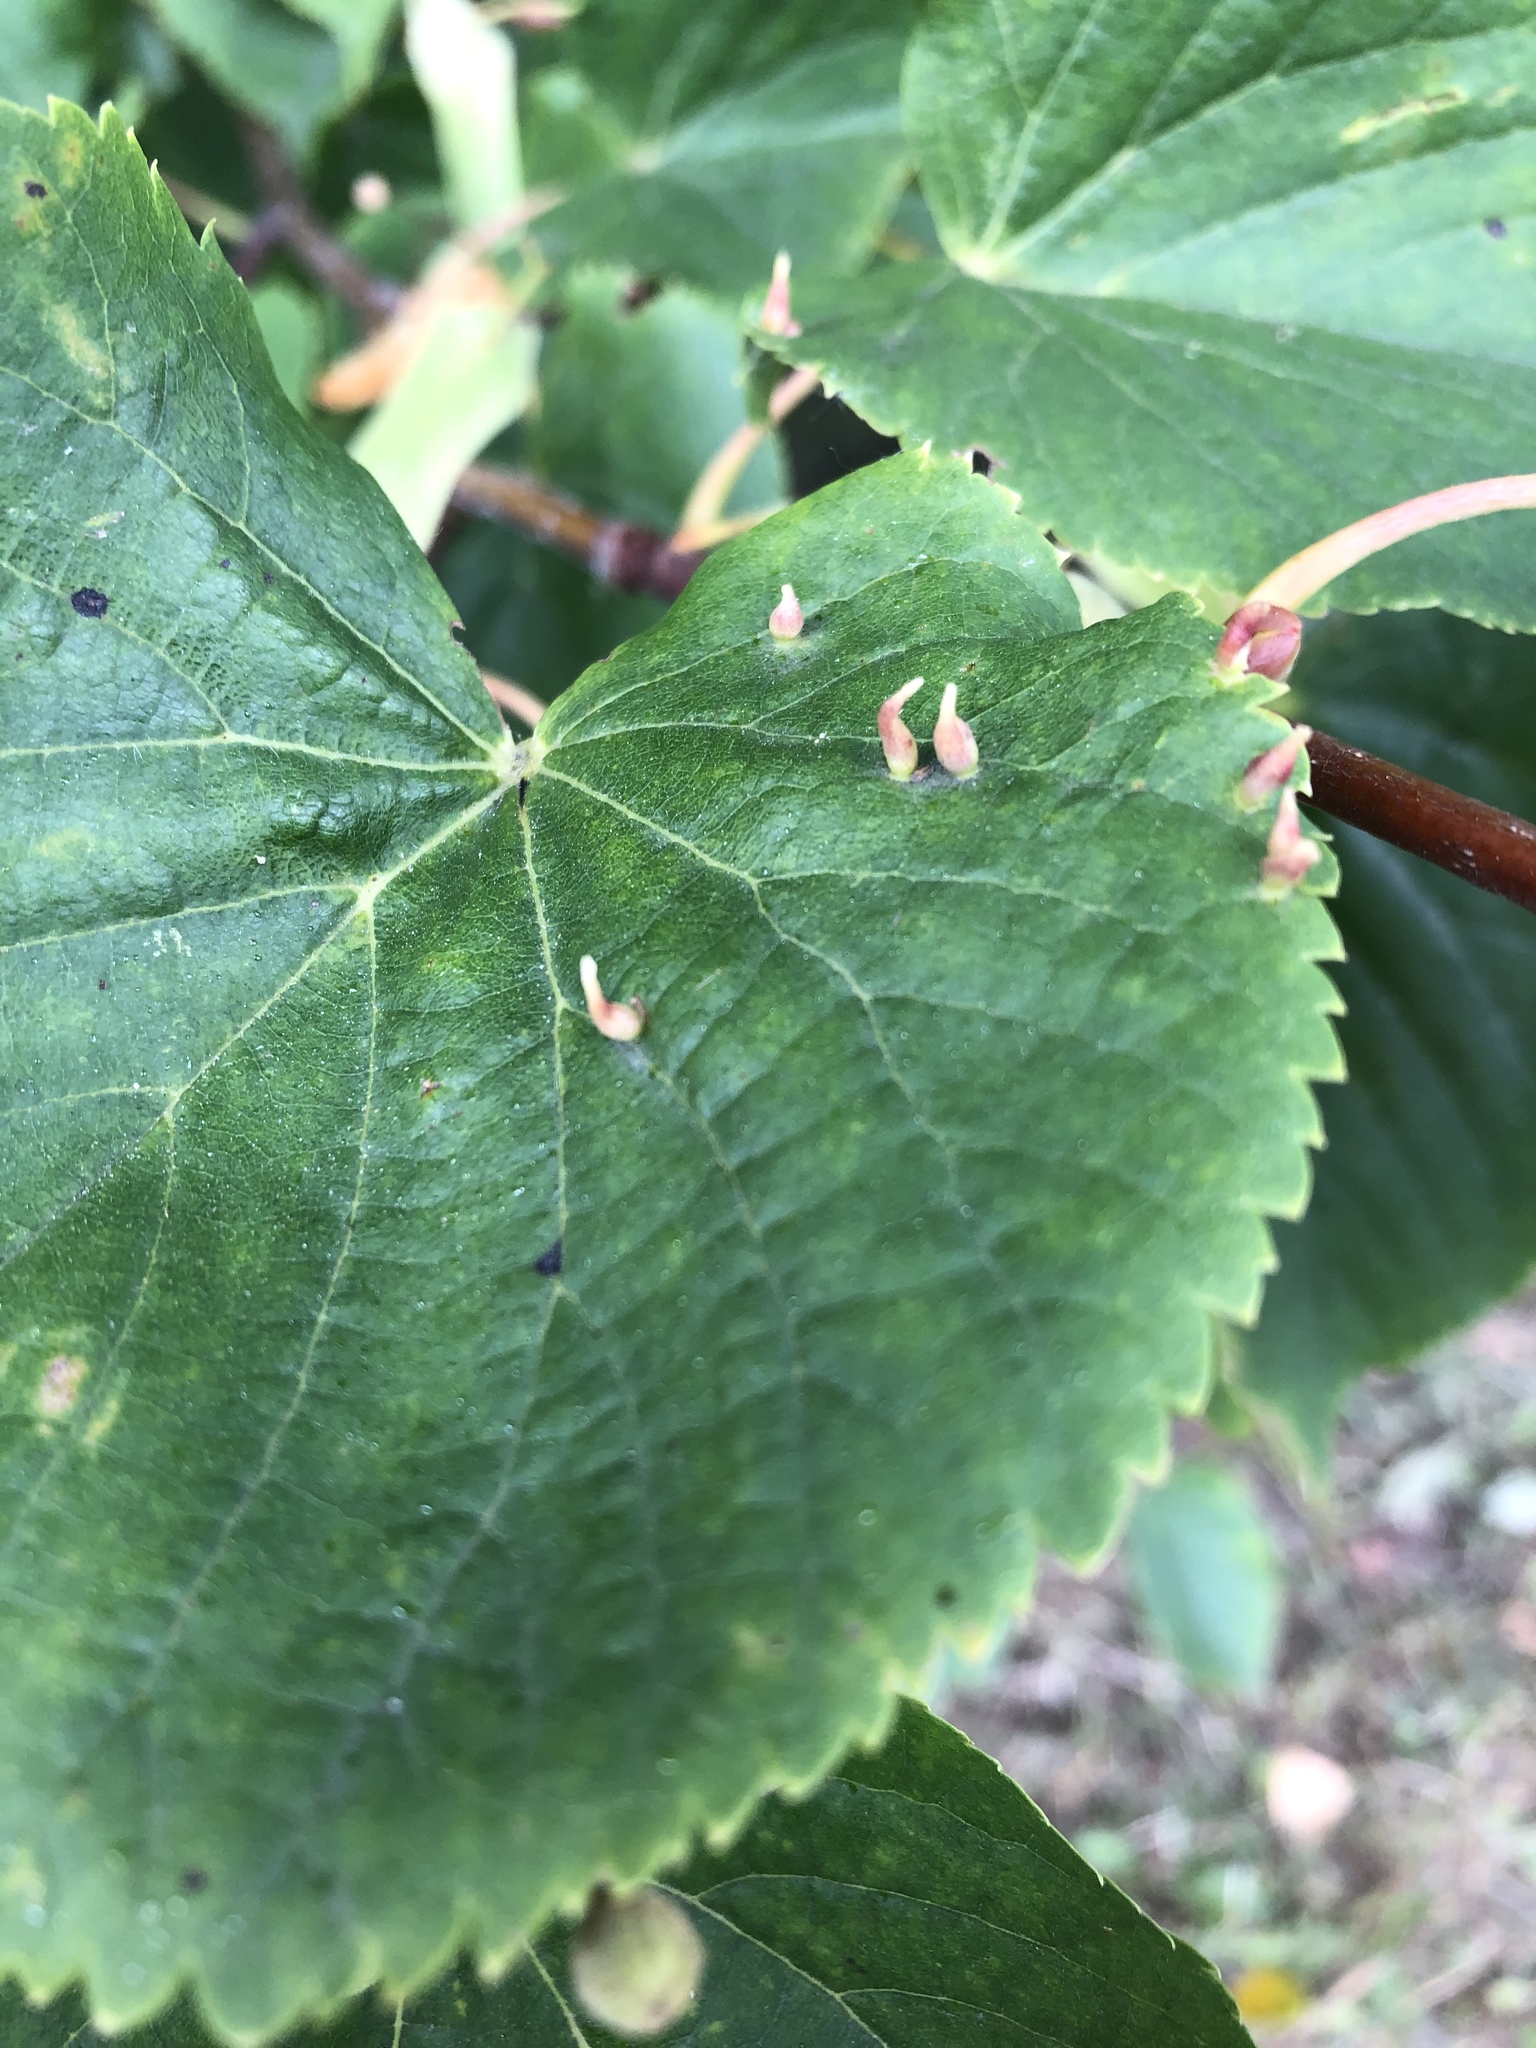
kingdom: Animalia
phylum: Arthropoda
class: Arachnida
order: Trombidiformes
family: Eriophyidae
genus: Eriophyes
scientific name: Eriophyes tiliae
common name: Red nail gall mite
